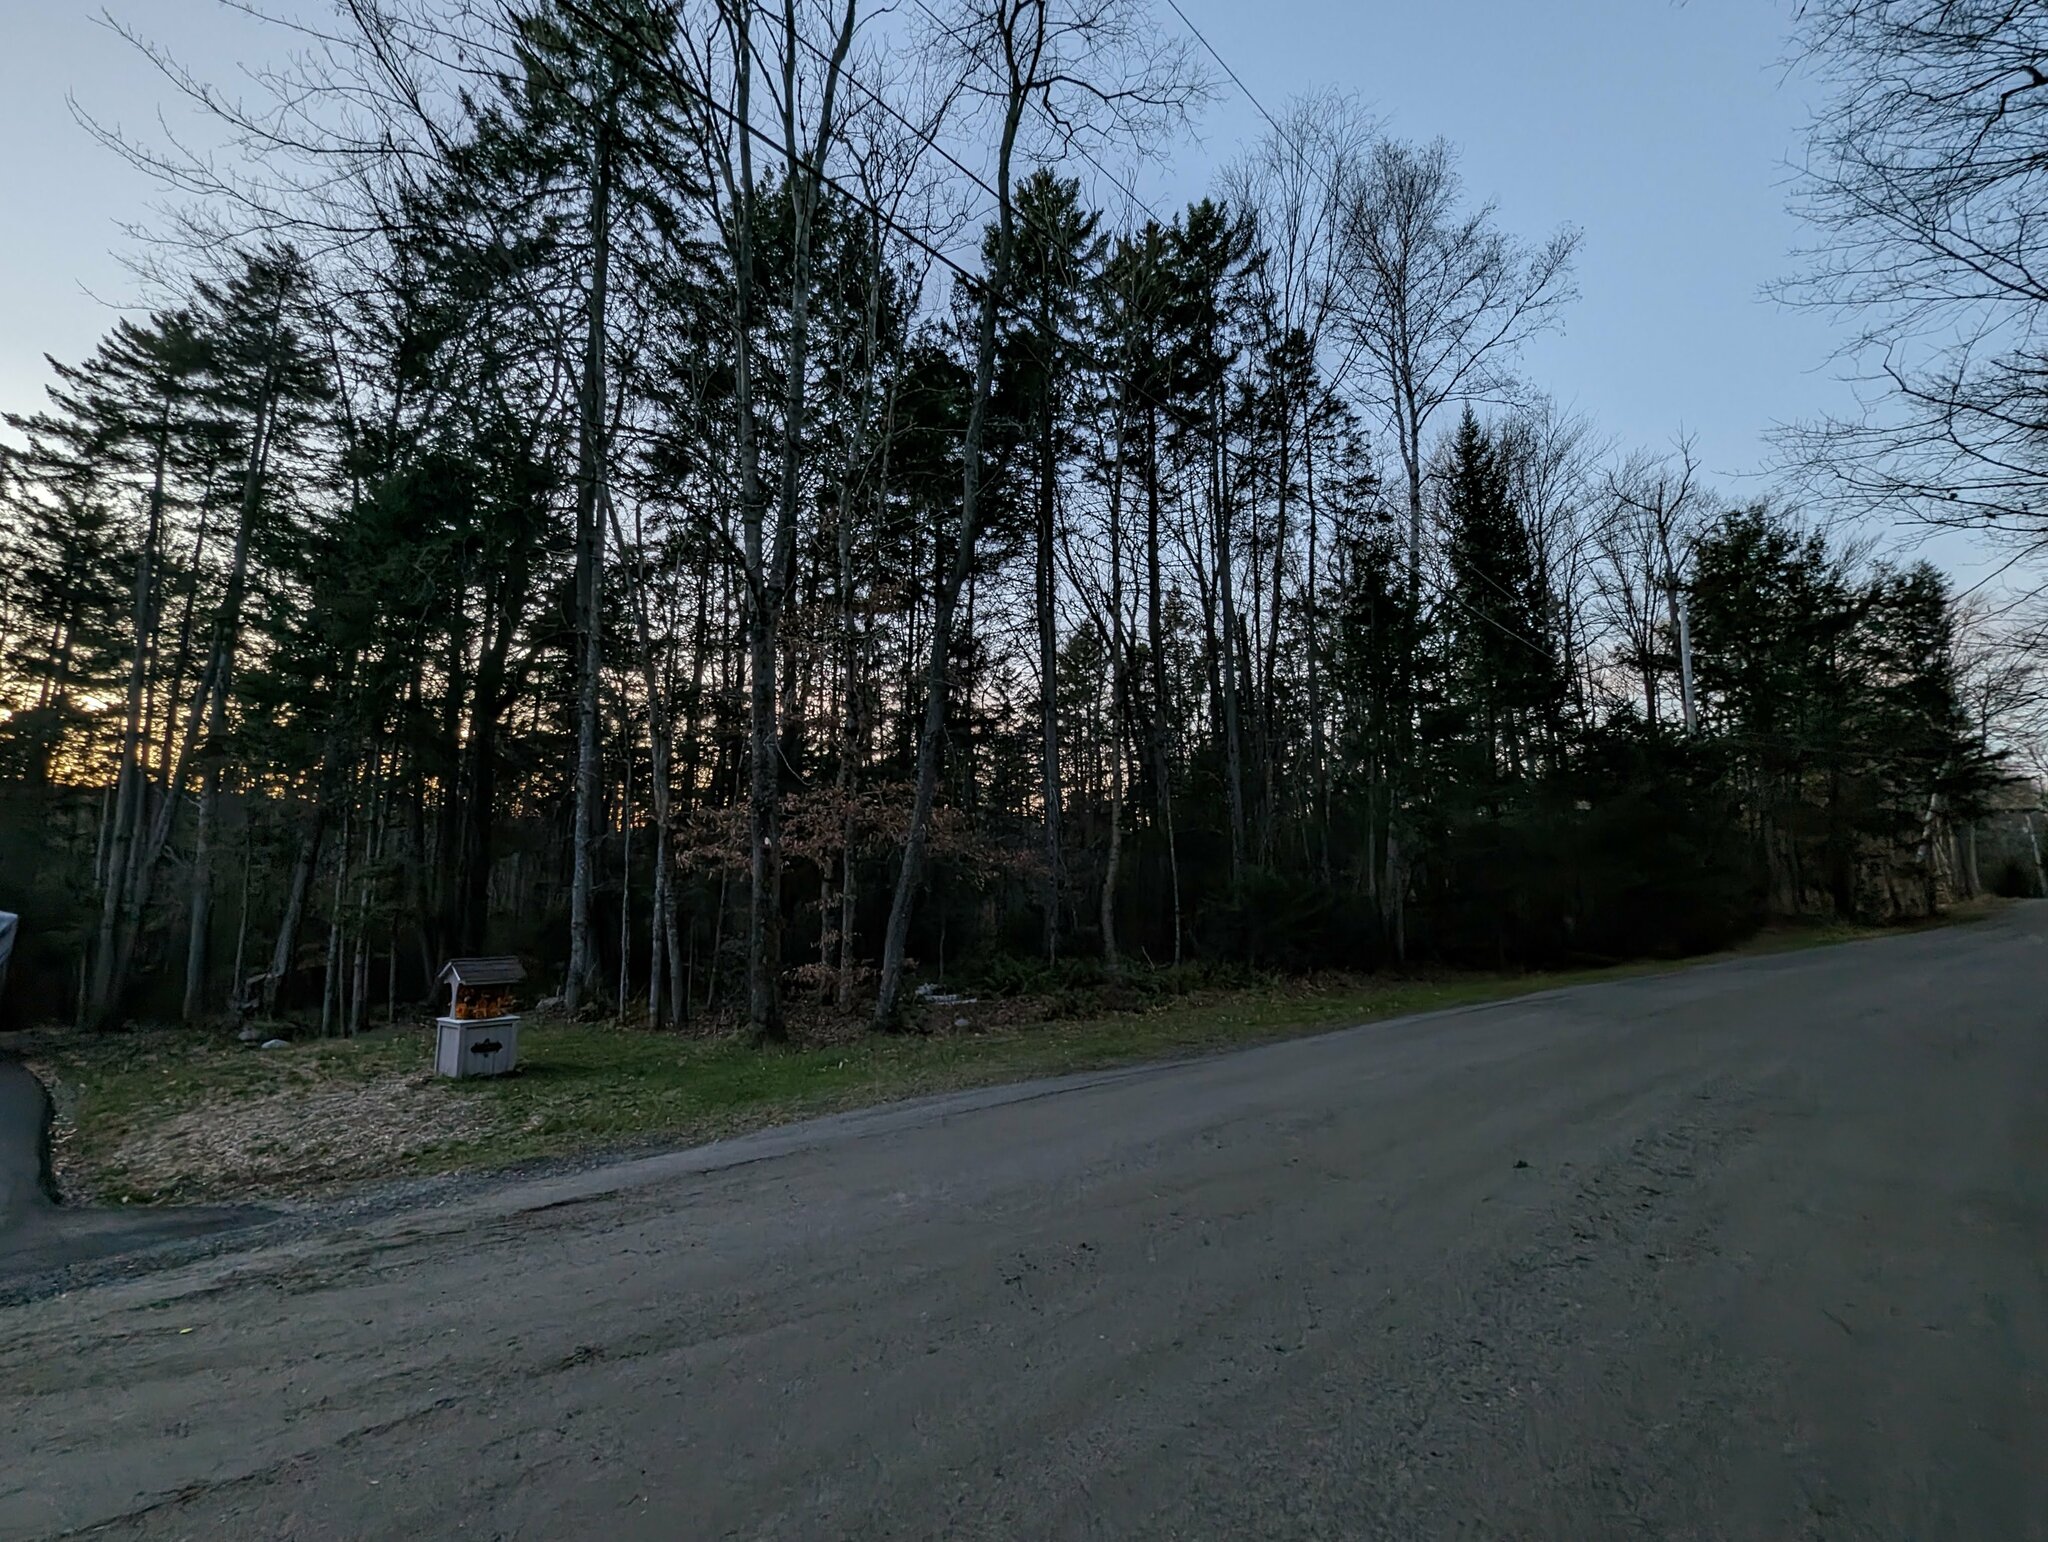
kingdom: Plantae
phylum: Tracheophyta
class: Pinopsida
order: Pinales
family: Pinaceae
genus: Pinus
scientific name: Pinus strobus
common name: Weymouth pine
